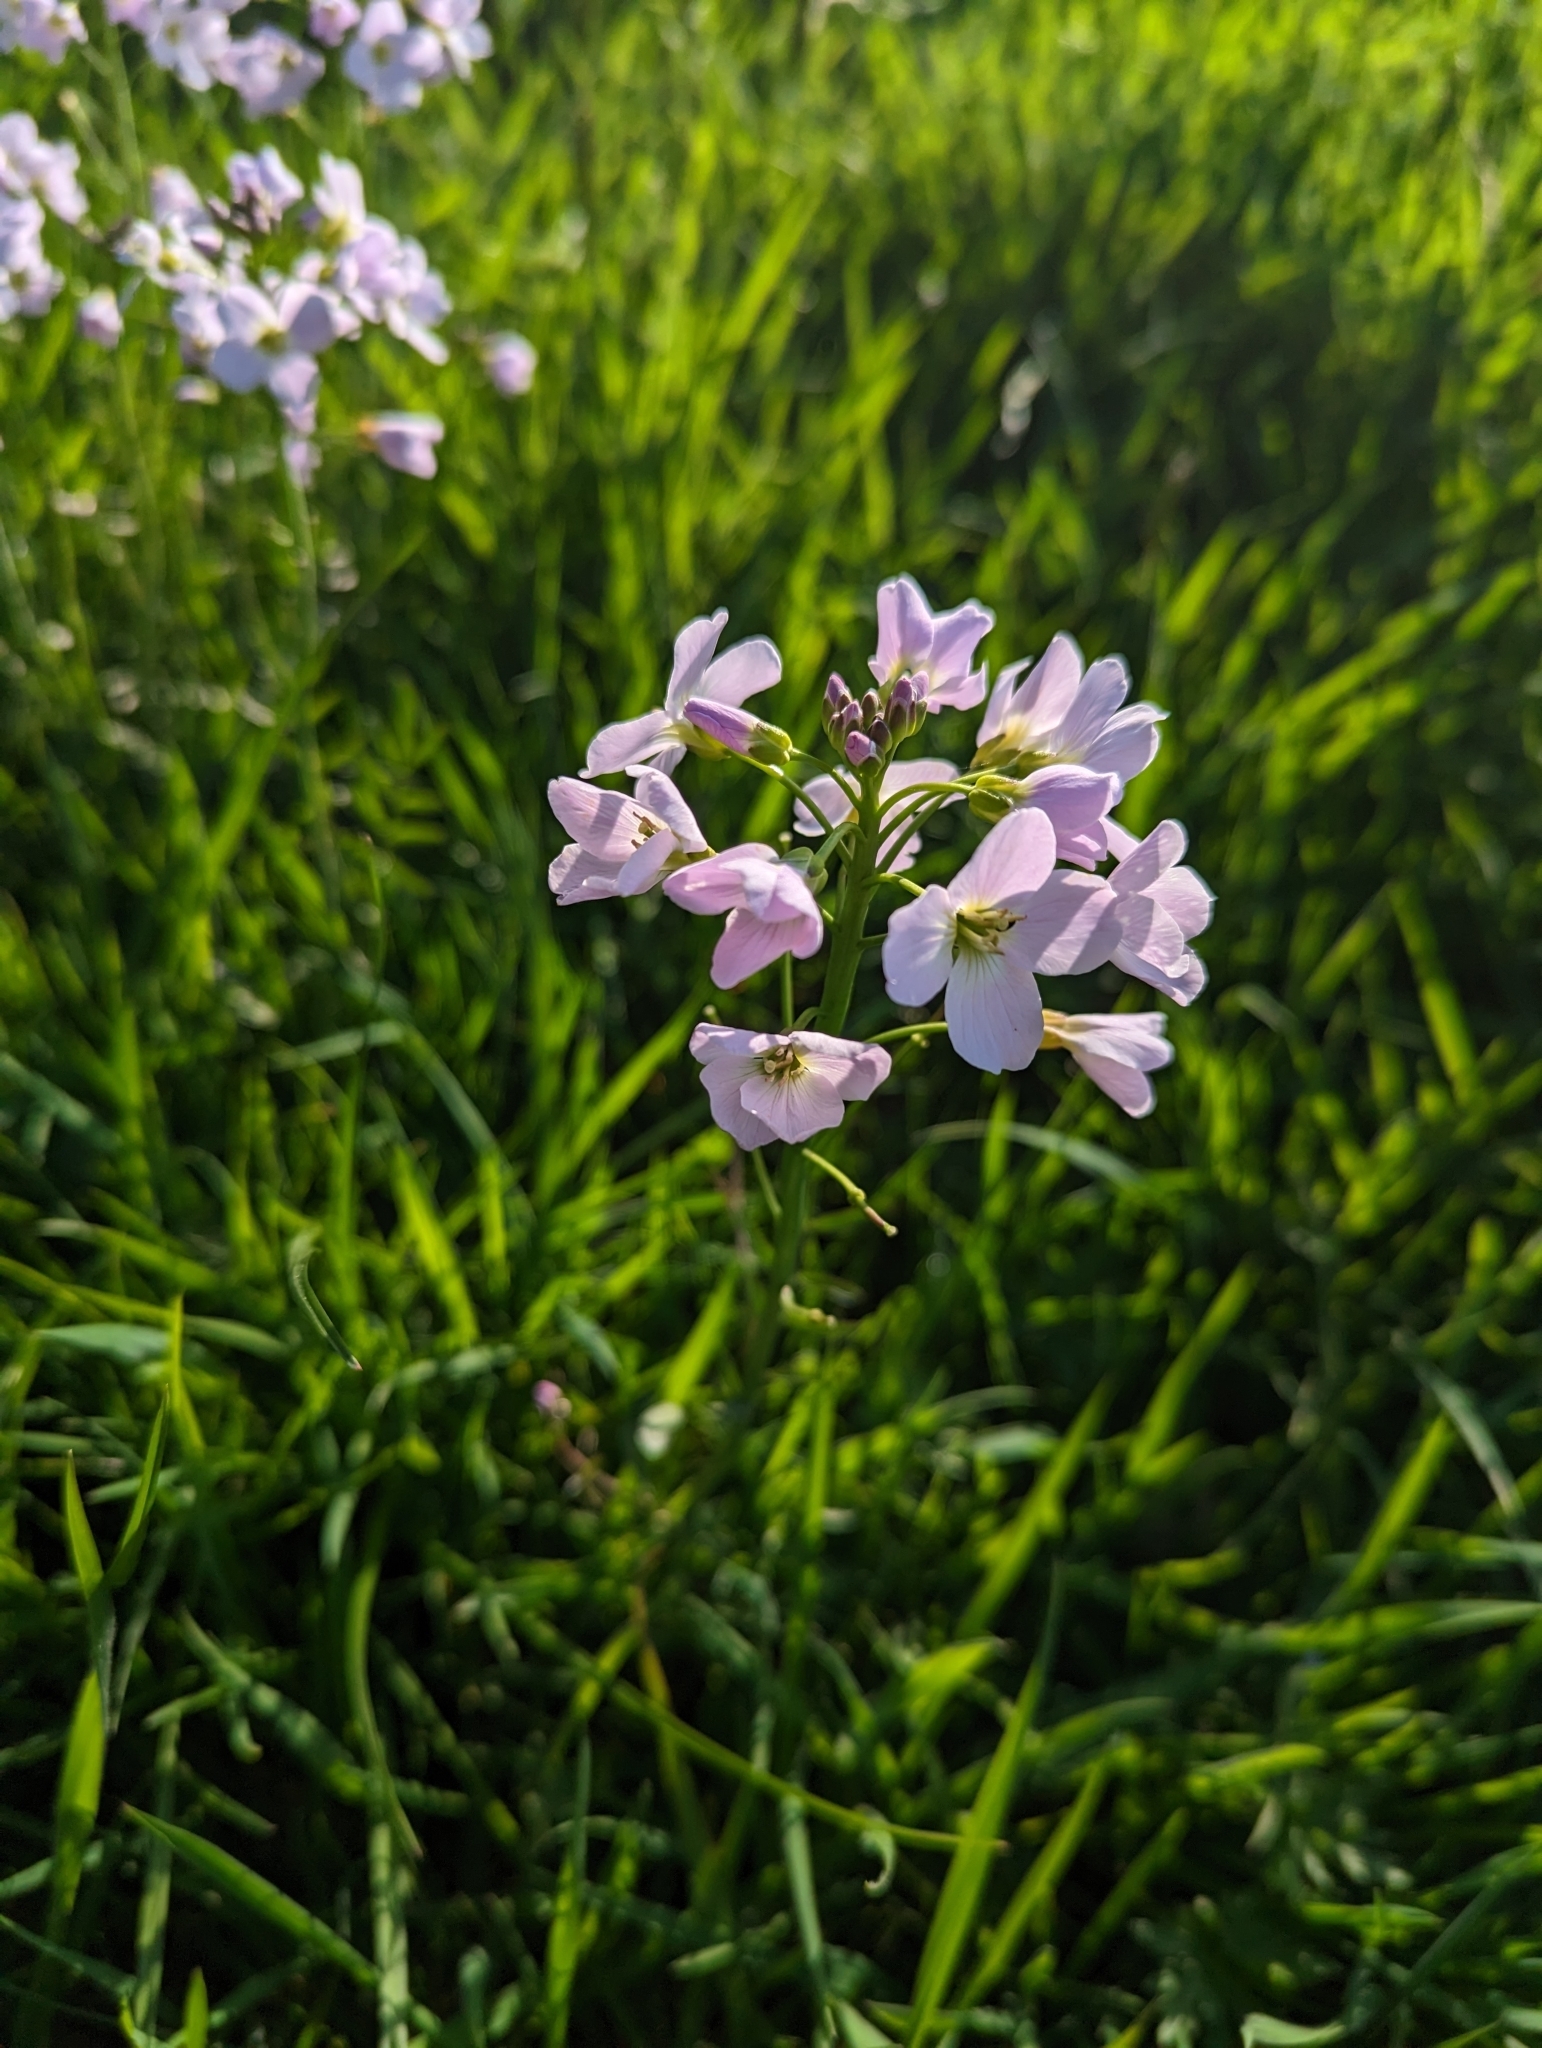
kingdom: Plantae
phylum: Tracheophyta
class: Magnoliopsida
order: Brassicales
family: Brassicaceae
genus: Cardamine
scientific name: Cardamine pratensis
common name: Cuckoo flower
